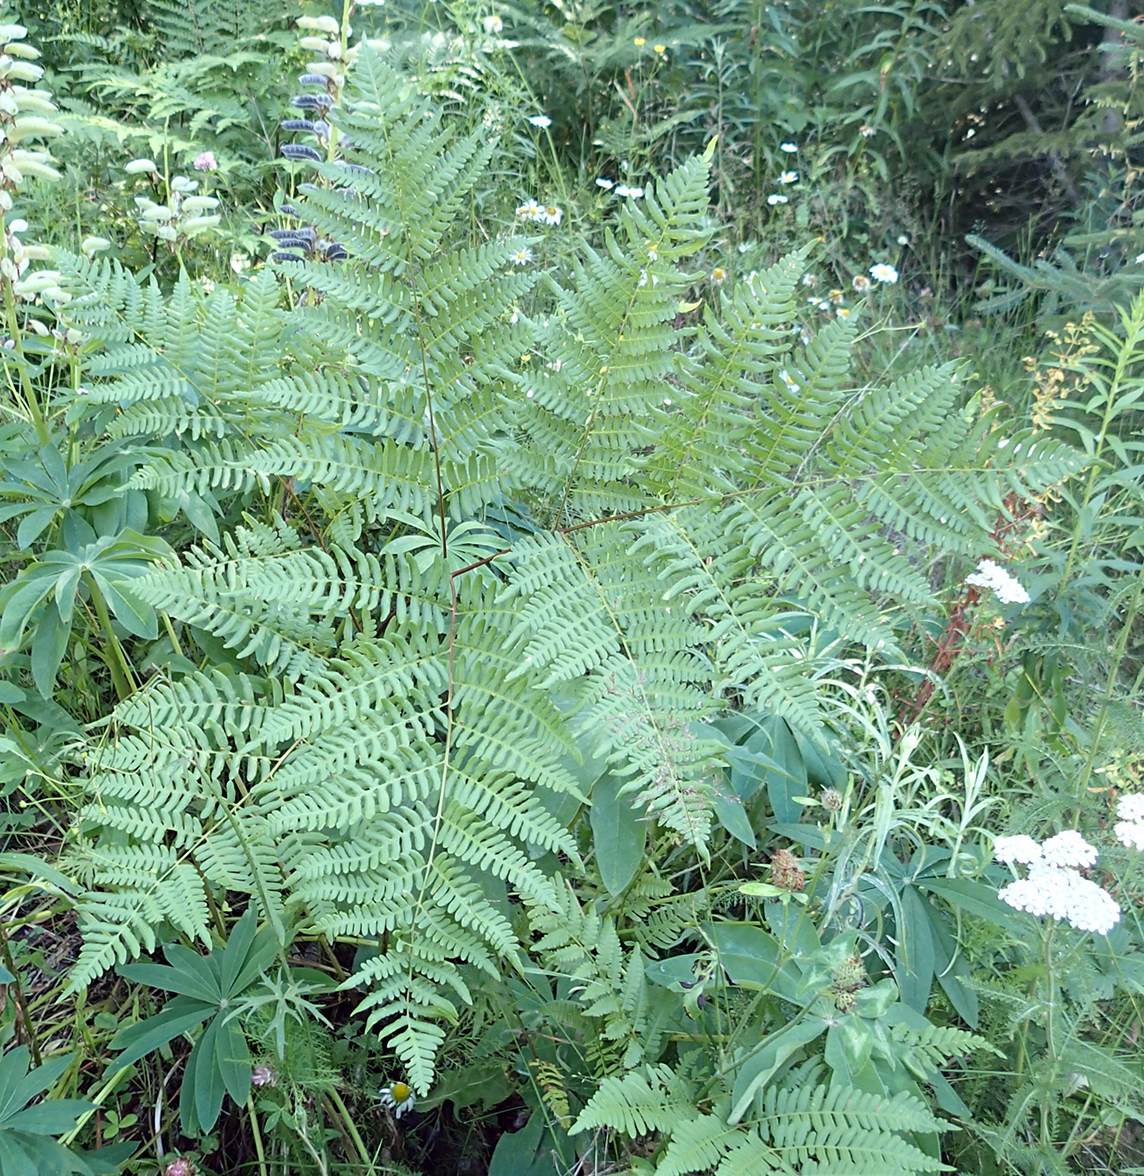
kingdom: Plantae
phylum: Tracheophyta
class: Polypodiopsida
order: Polypodiales
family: Dennstaedtiaceae
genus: Pteridium
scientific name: Pteridium aquilinum
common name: Bracken
